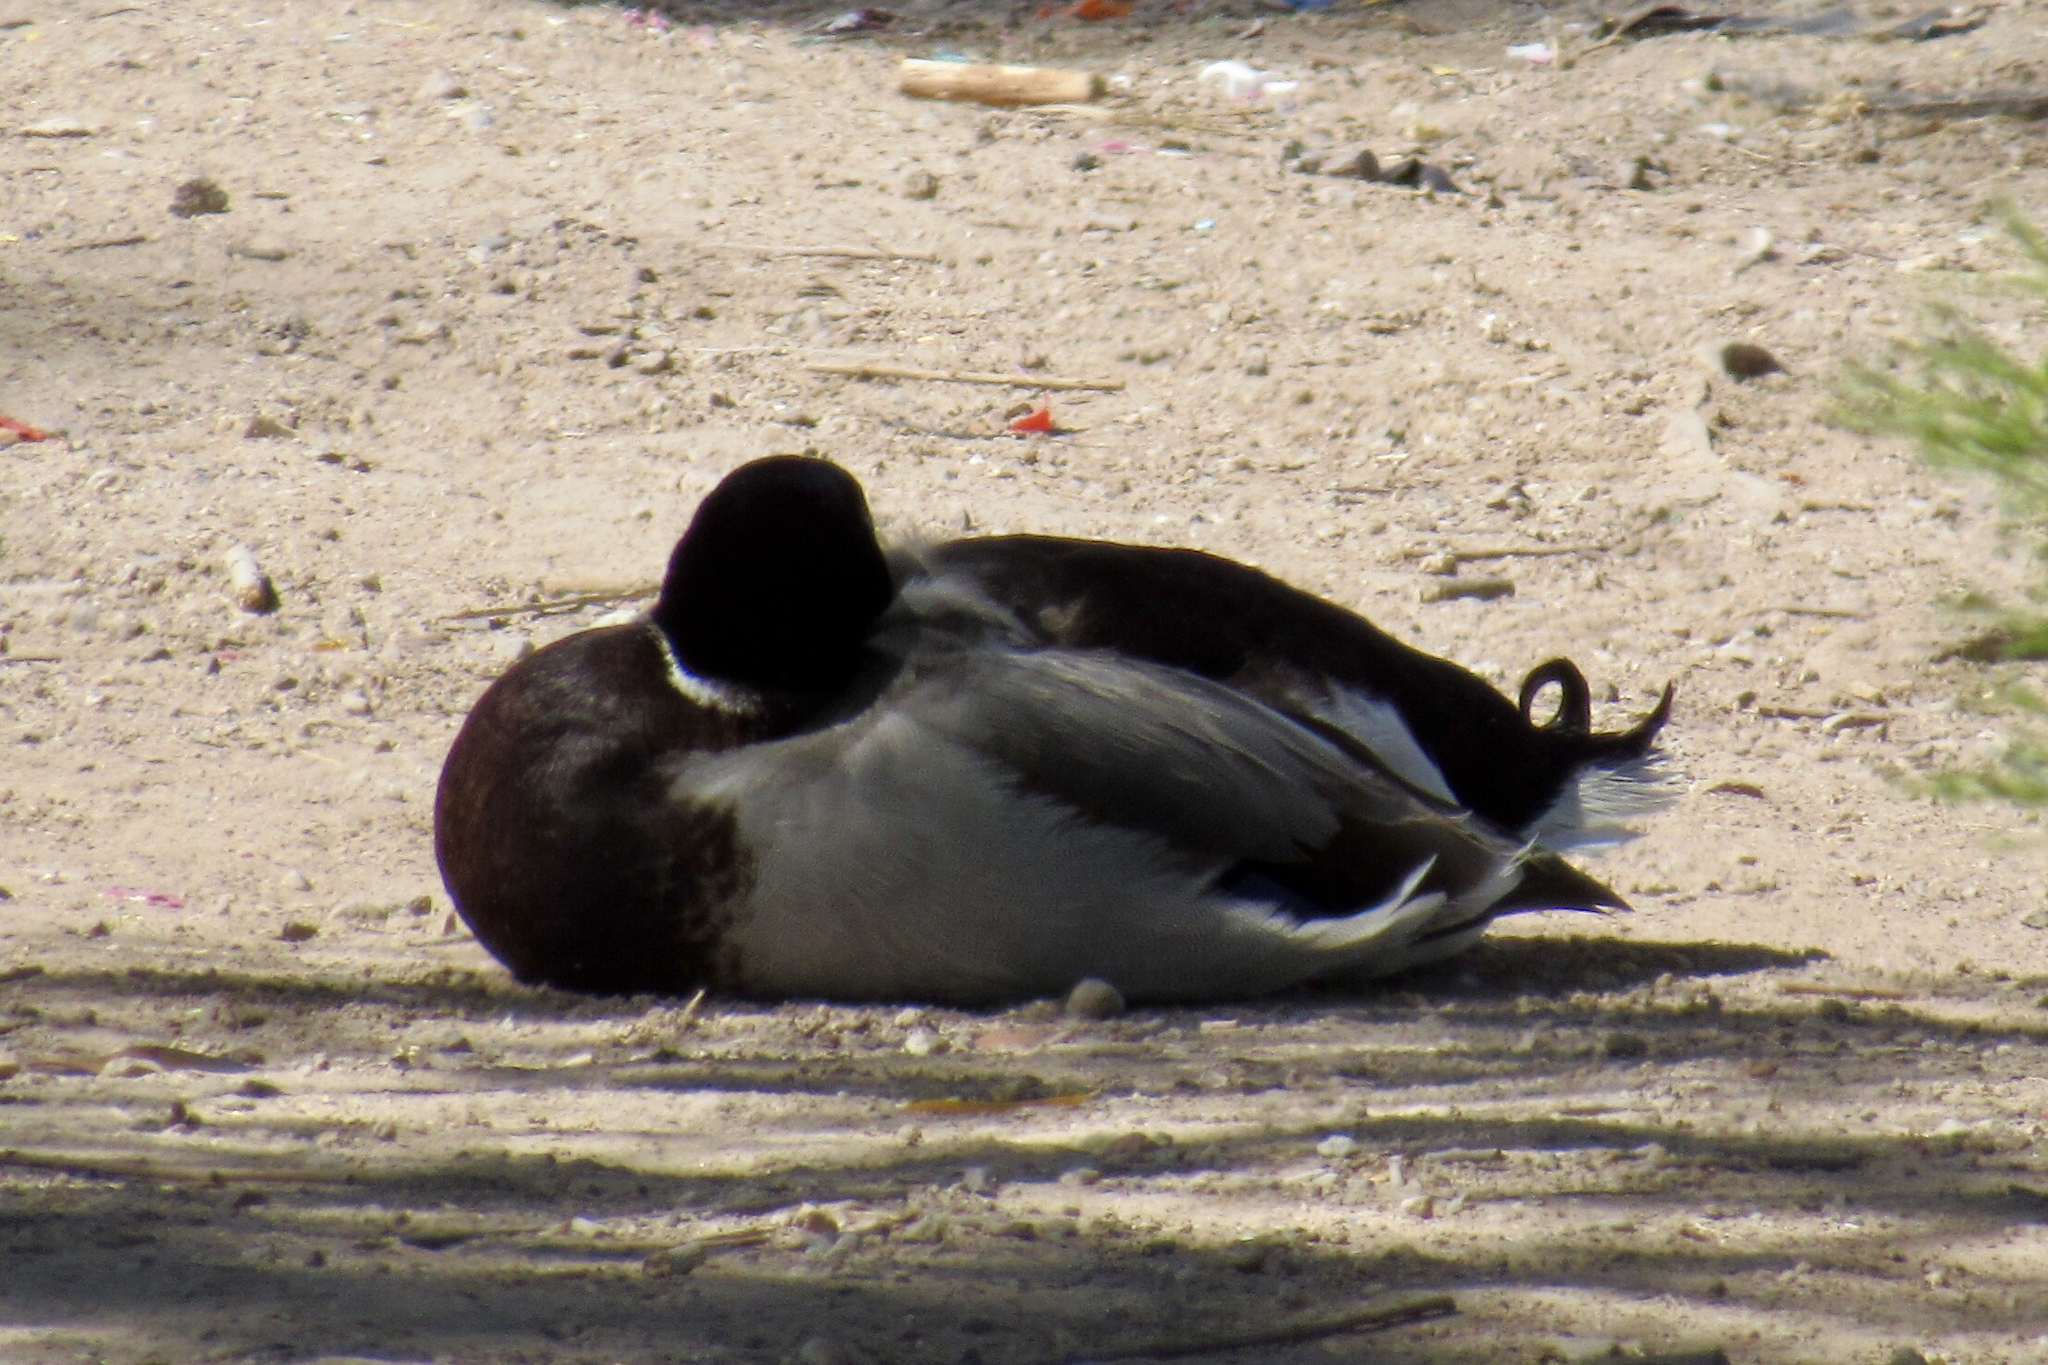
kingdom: Animalia
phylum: Chordata
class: Aves
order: Anseriformes
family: Anatidae
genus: Anas
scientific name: Anas platyrhynchos
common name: Mallard
